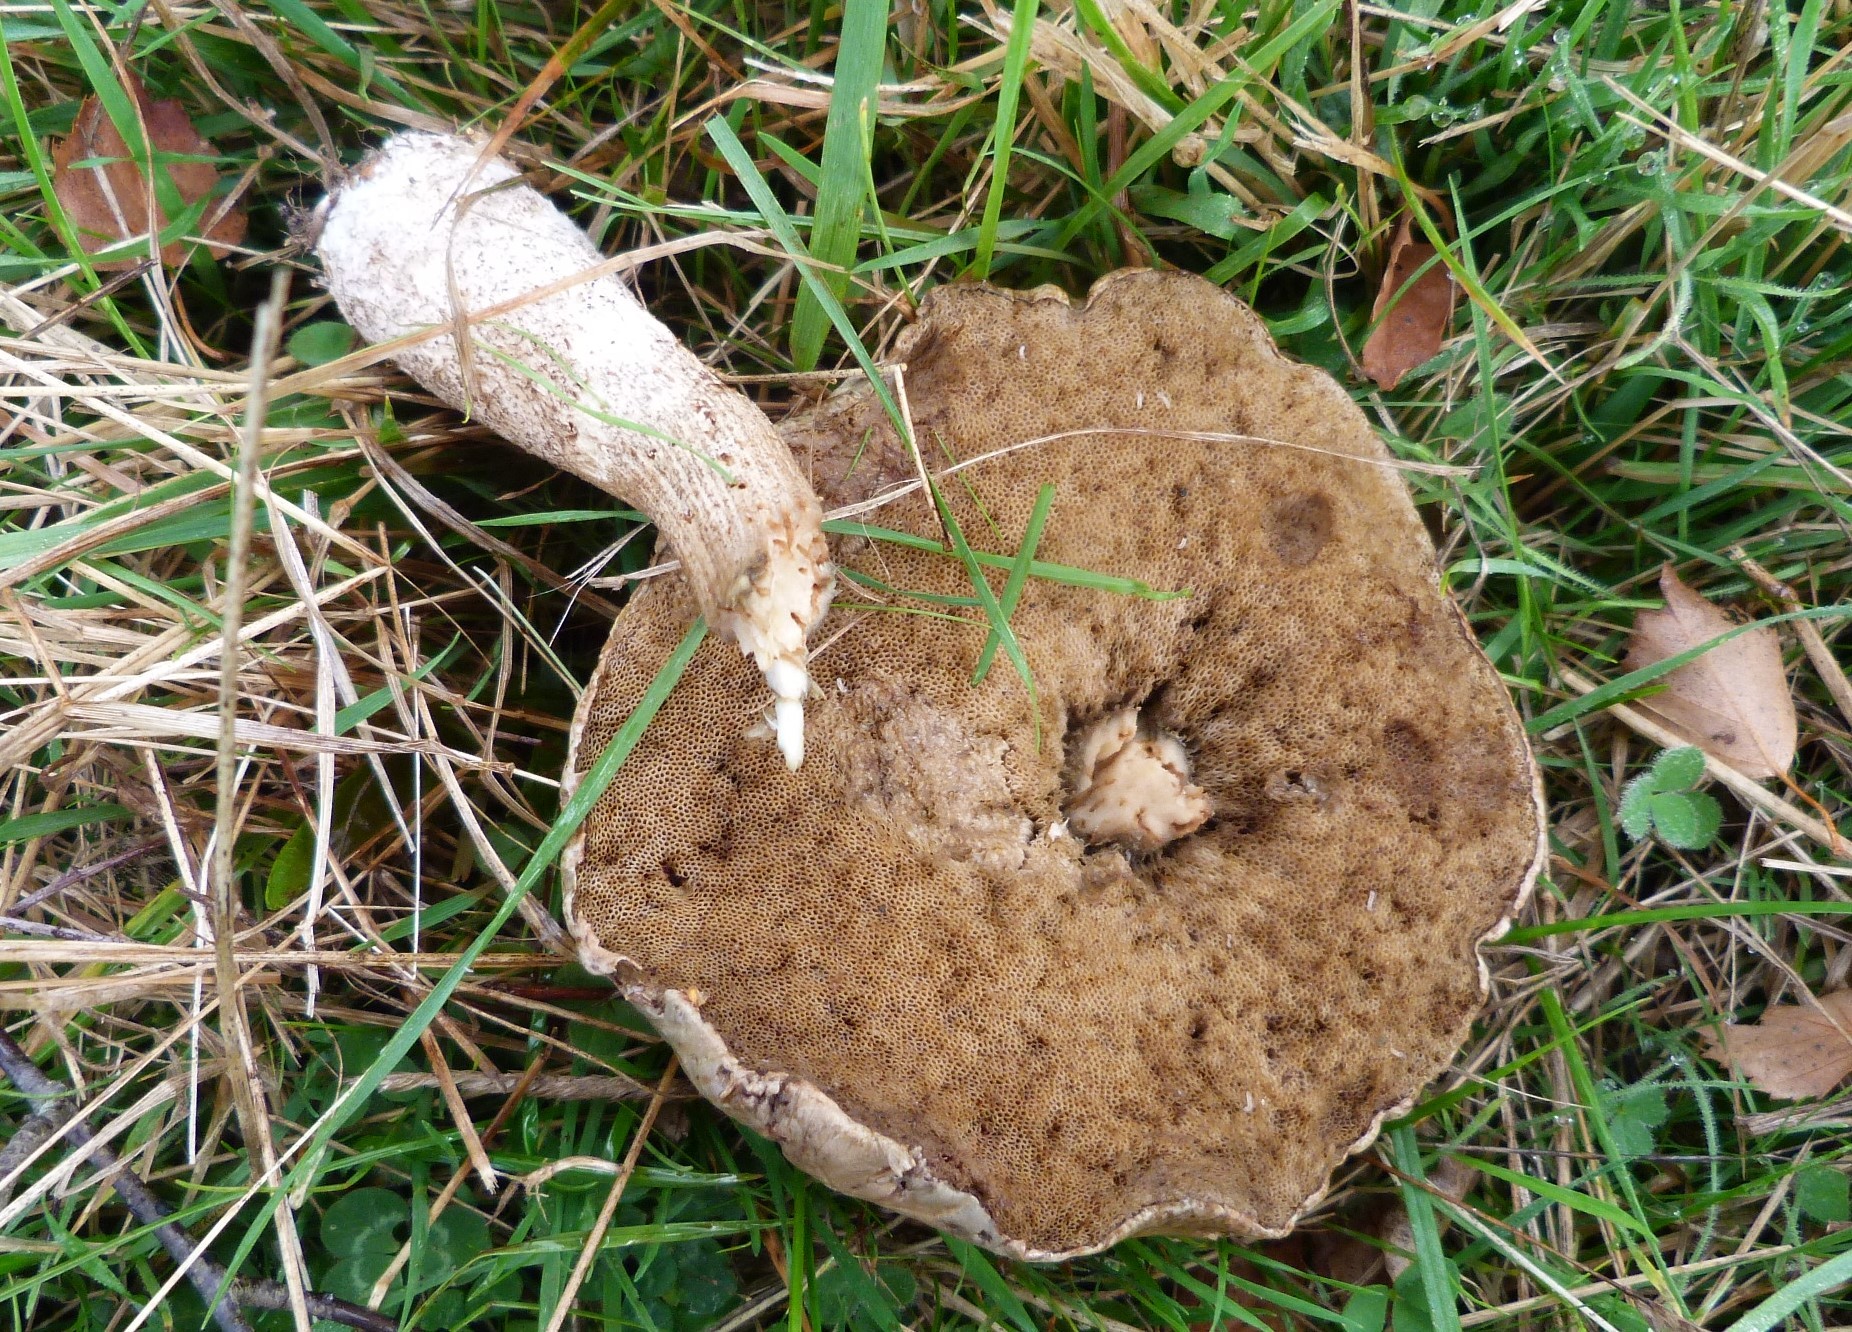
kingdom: Fungi
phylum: Basidiomycota
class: Agaricomycetes
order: Boletales
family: Boletaceae
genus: Leccinum
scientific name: Leccinum scabrum
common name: Blushing bolete
